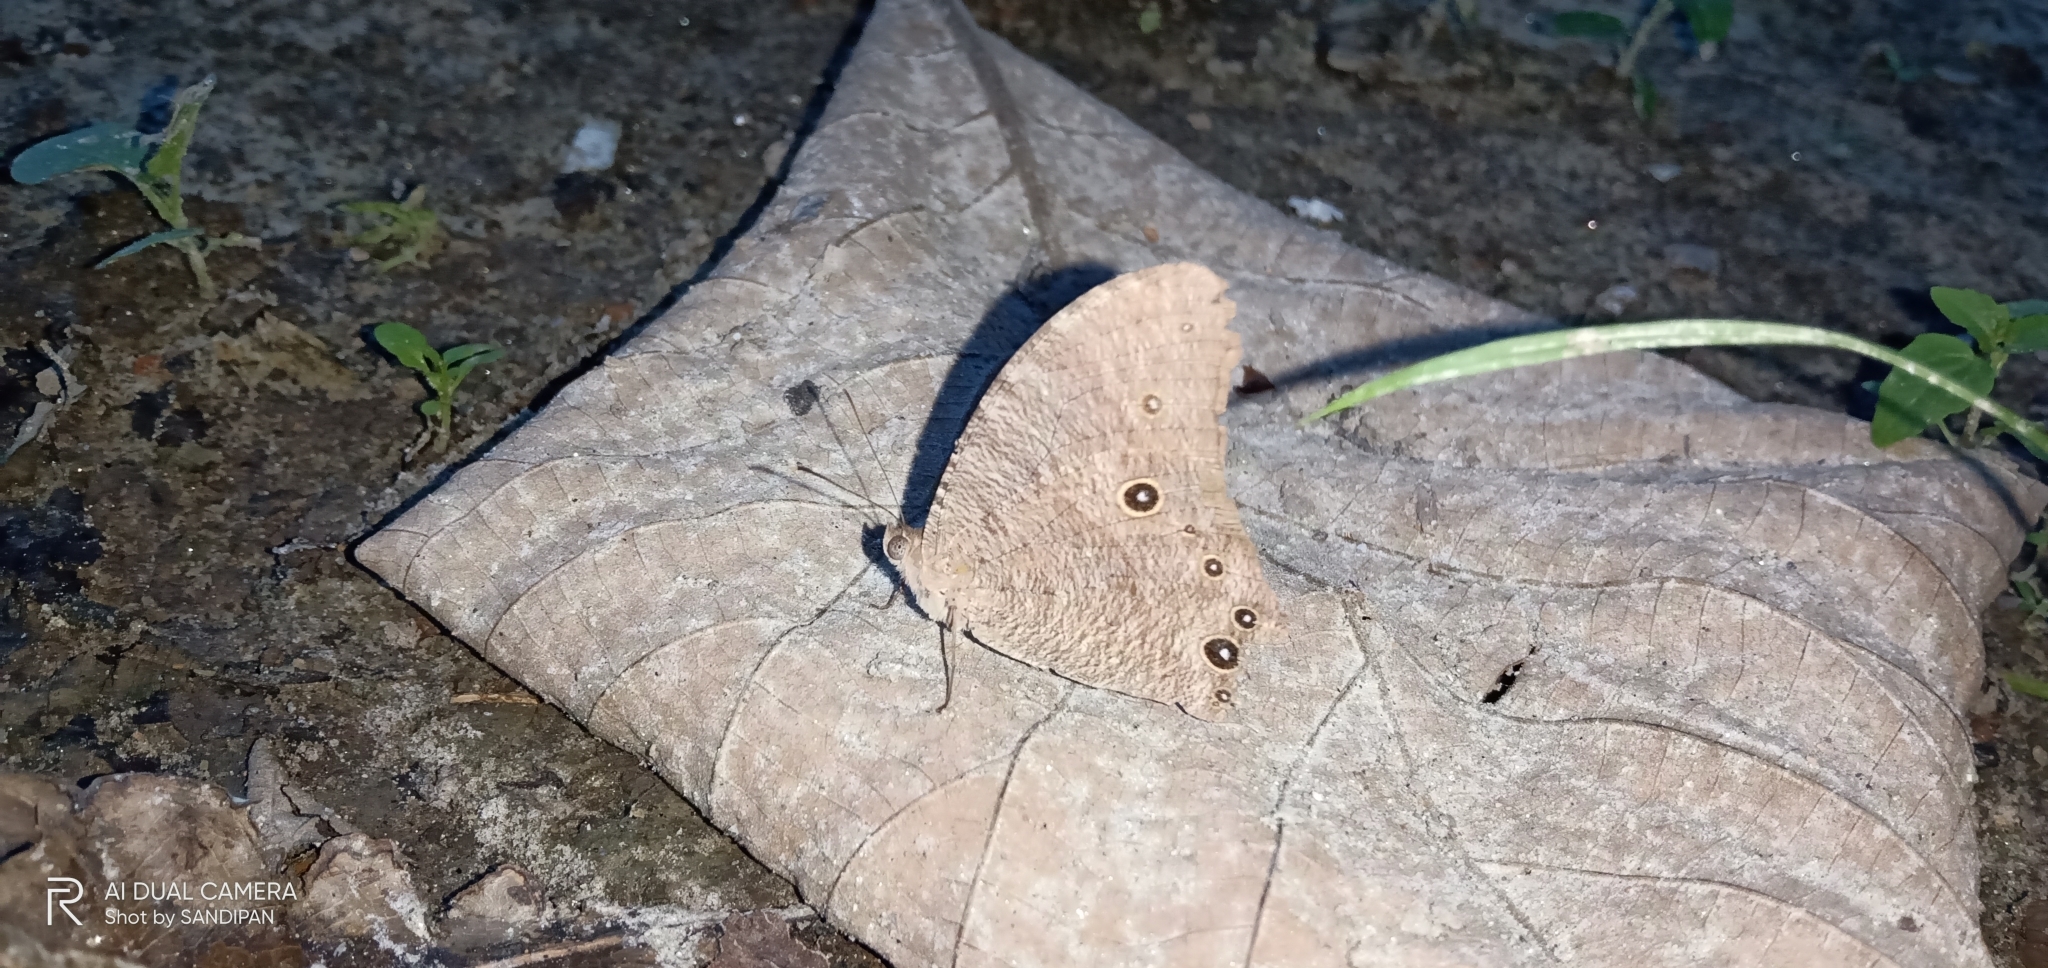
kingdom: Animalia
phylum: Arthropoda
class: Insecta
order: Lepidoptera
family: Nymphalidae
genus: Melanitis
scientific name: Melanitis leda
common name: Twilight brown
